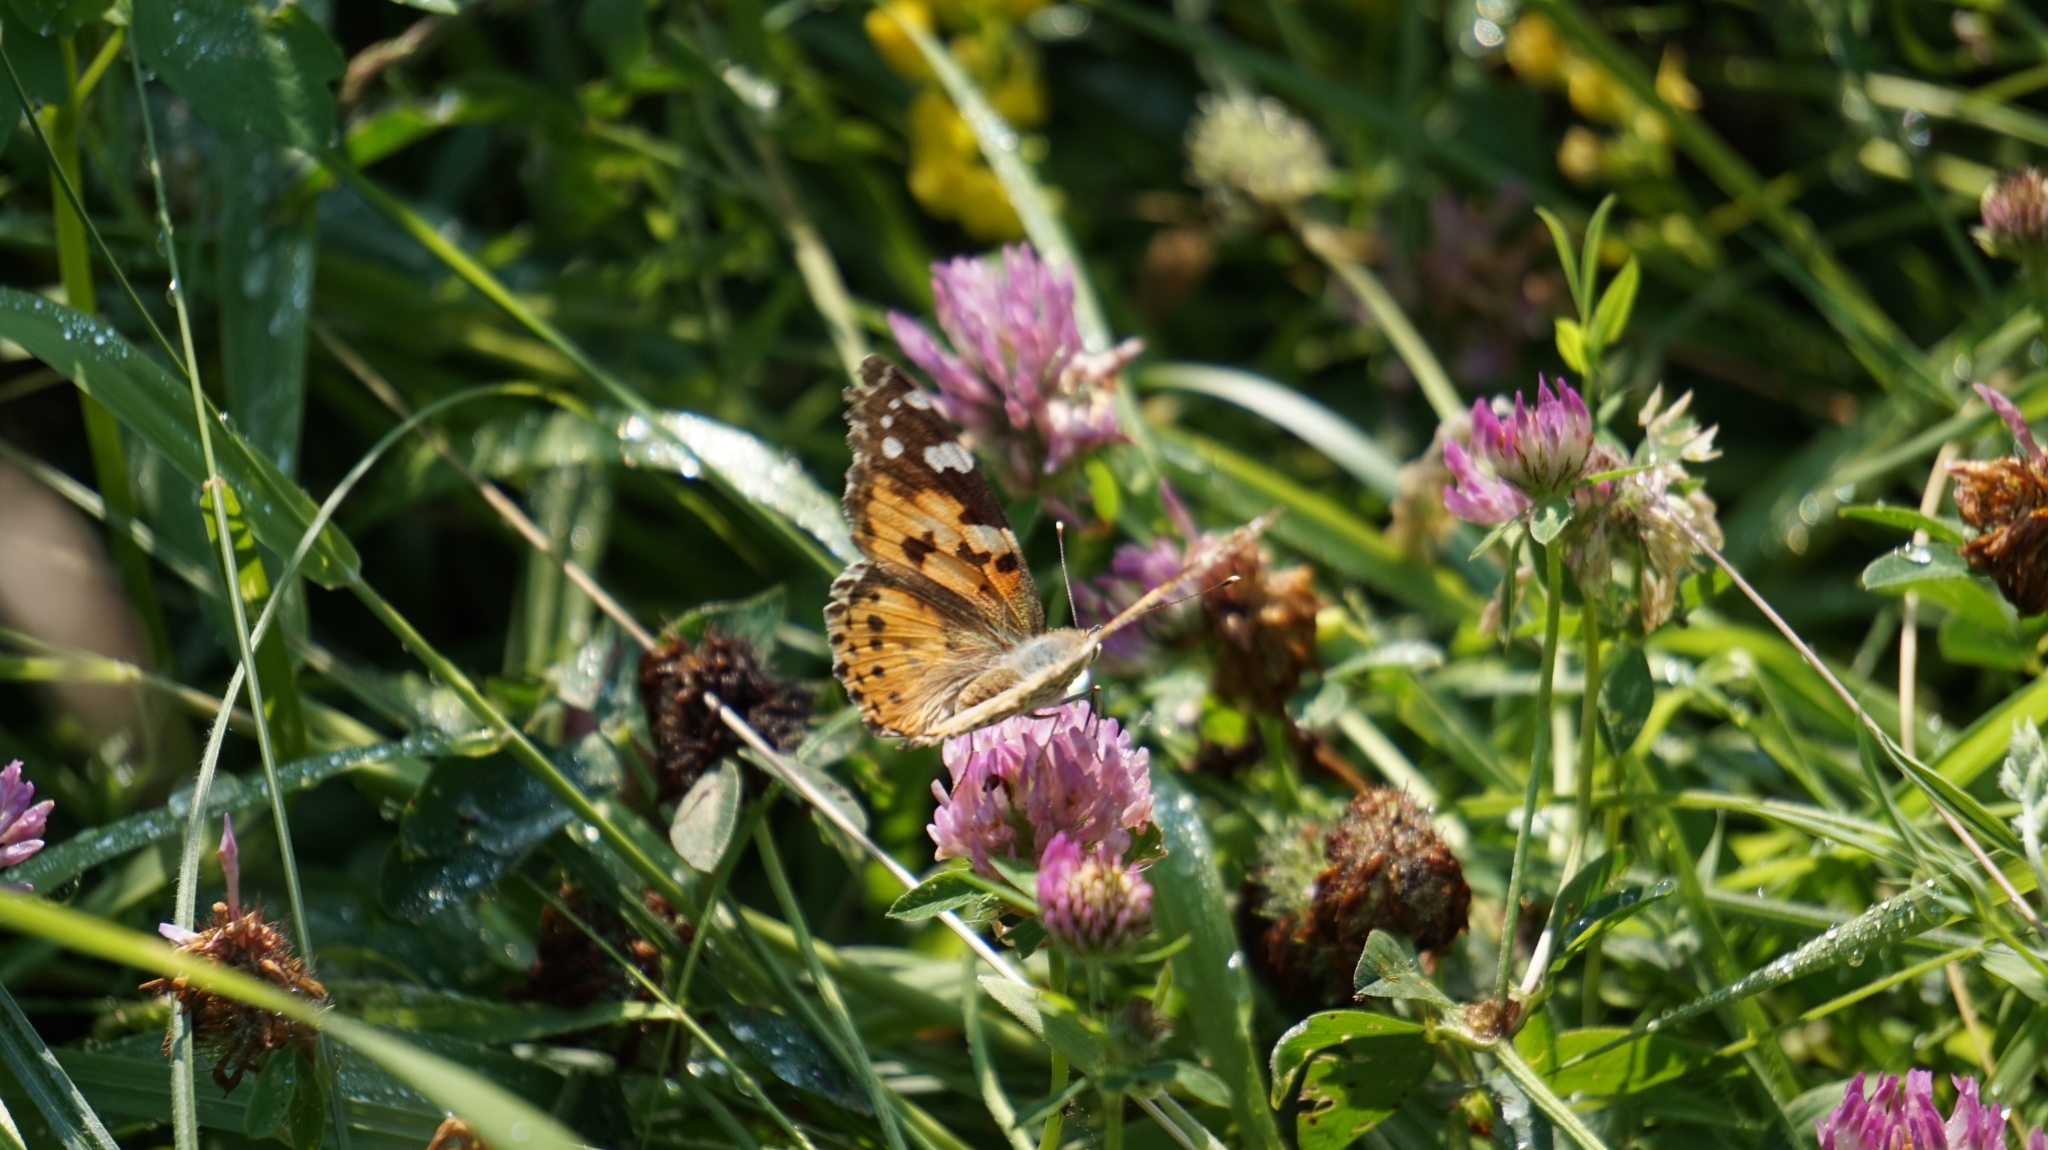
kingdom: Animalia
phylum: Arthropoda
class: Insecta
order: Lepidoptera
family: Nymphalidae
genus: Vanessa
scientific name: Vanessa cardui
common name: Painted lady
